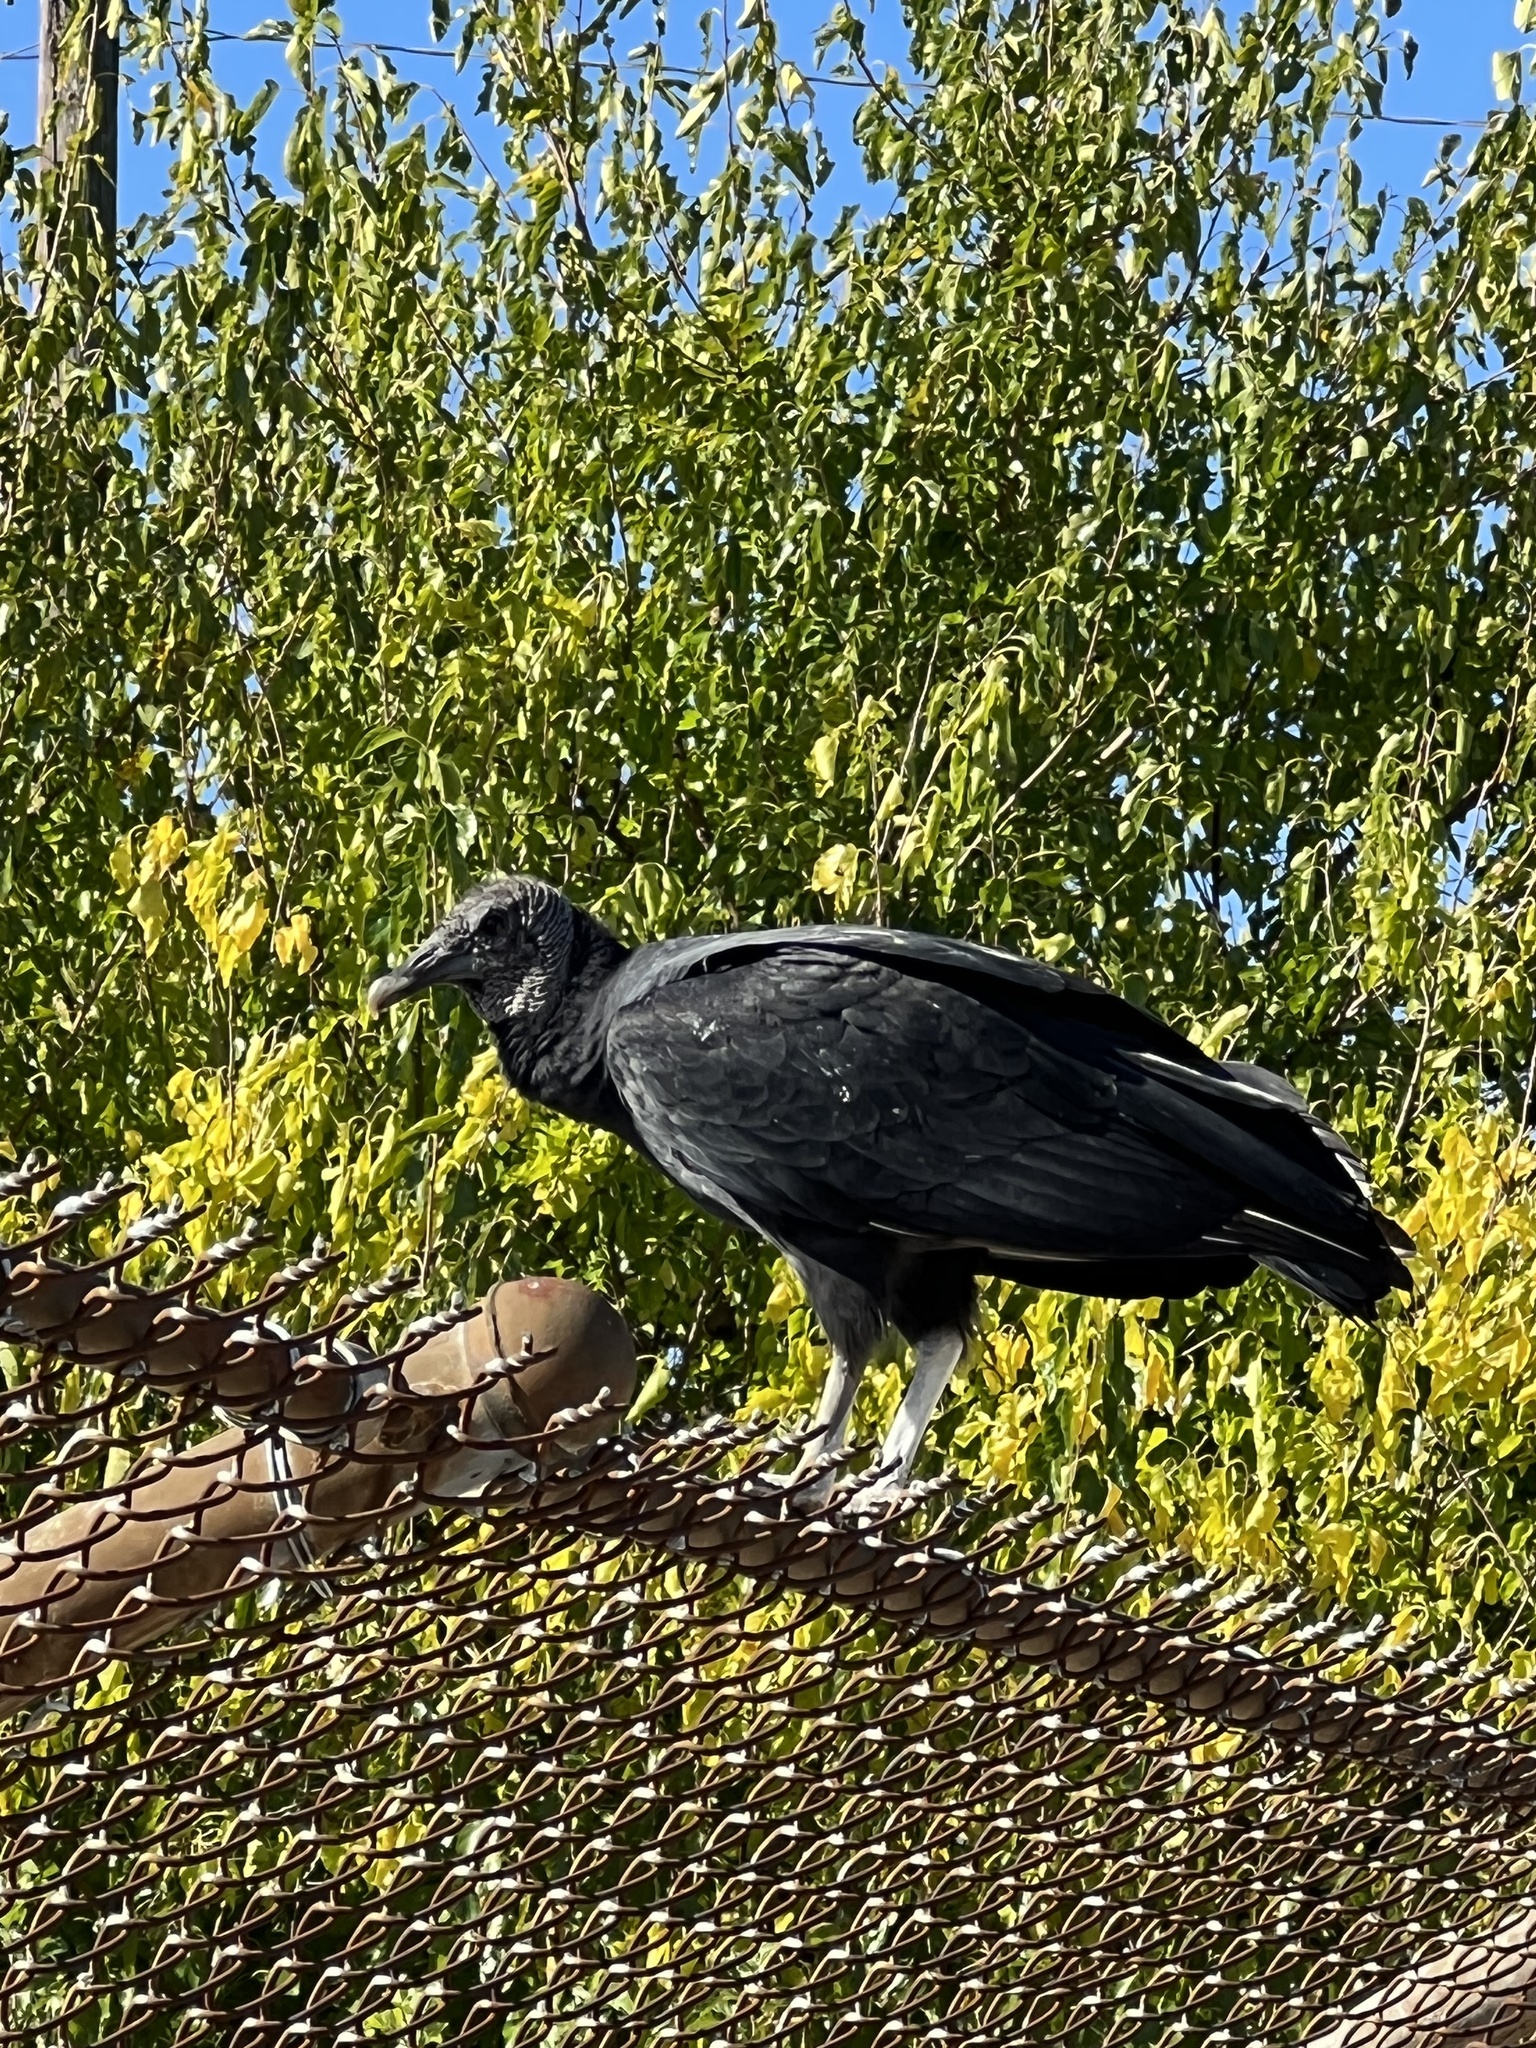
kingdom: Animalia
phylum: Chordata
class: Aves
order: Accipitriformes
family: Cathartidae
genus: Coragyps
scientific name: Coragyps atratus
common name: Black vulture
